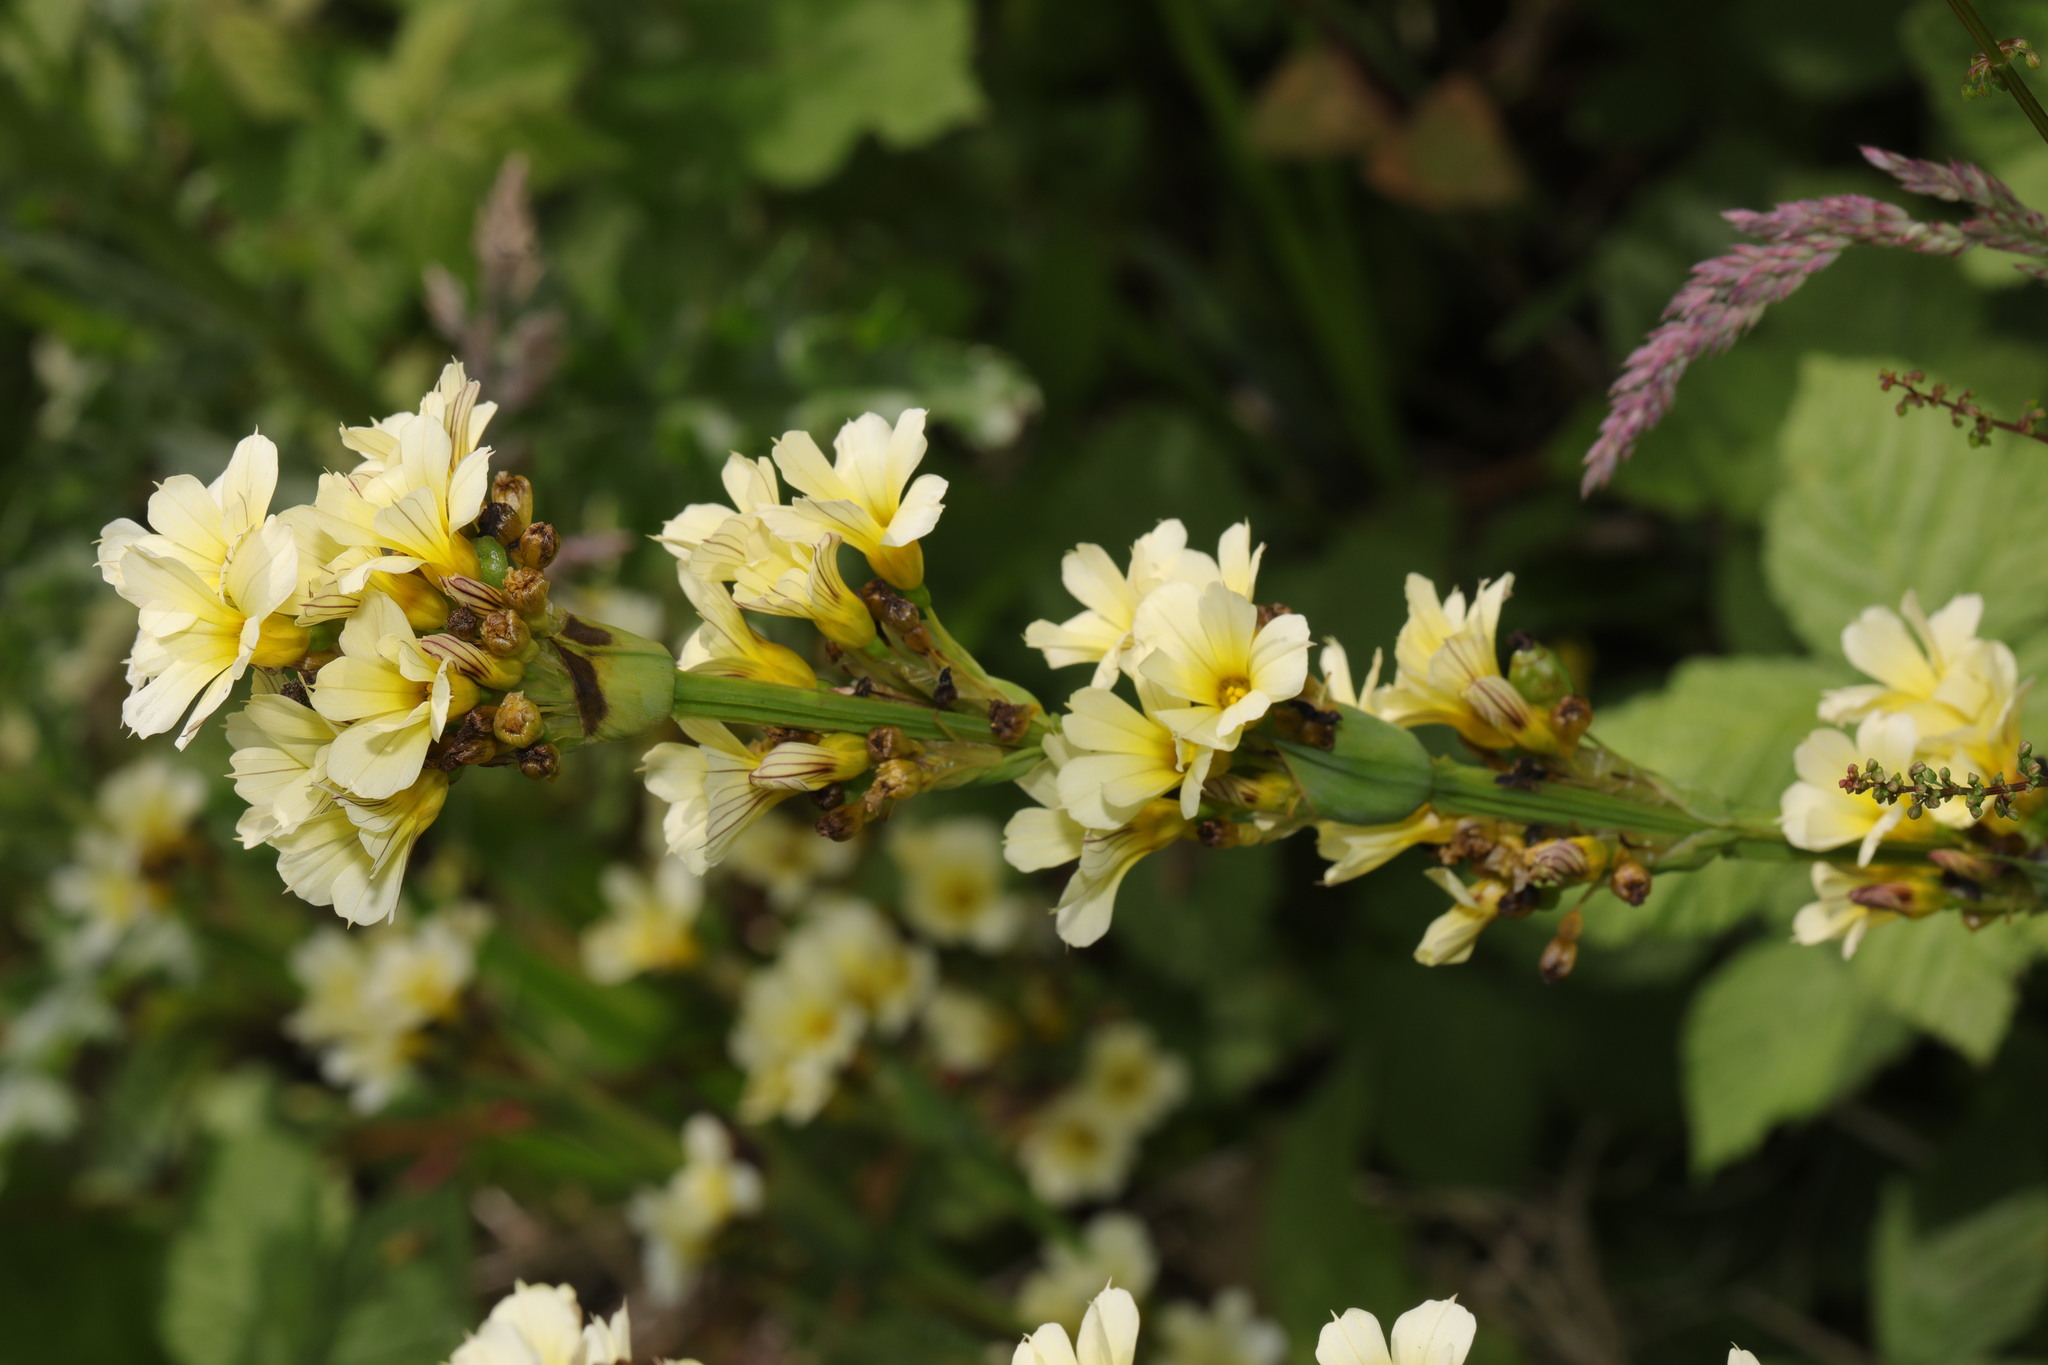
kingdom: Plantae
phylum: Tracheophyta
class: Liliopsida
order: Asparagales
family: Iridaceae
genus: Sisyrinchium
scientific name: Sisyrinchium striatum
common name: Pale yellow-eyed-grass
